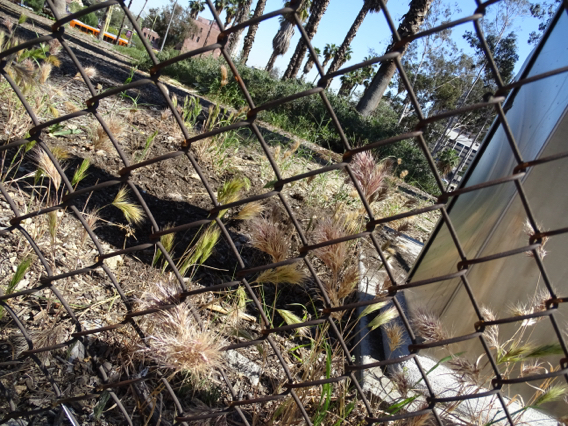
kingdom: Plantae
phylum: Tracheophyta
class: Liliopsida
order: Poales
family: Poaceae
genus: Bromus
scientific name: Bromus madritensis
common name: Compact brome
